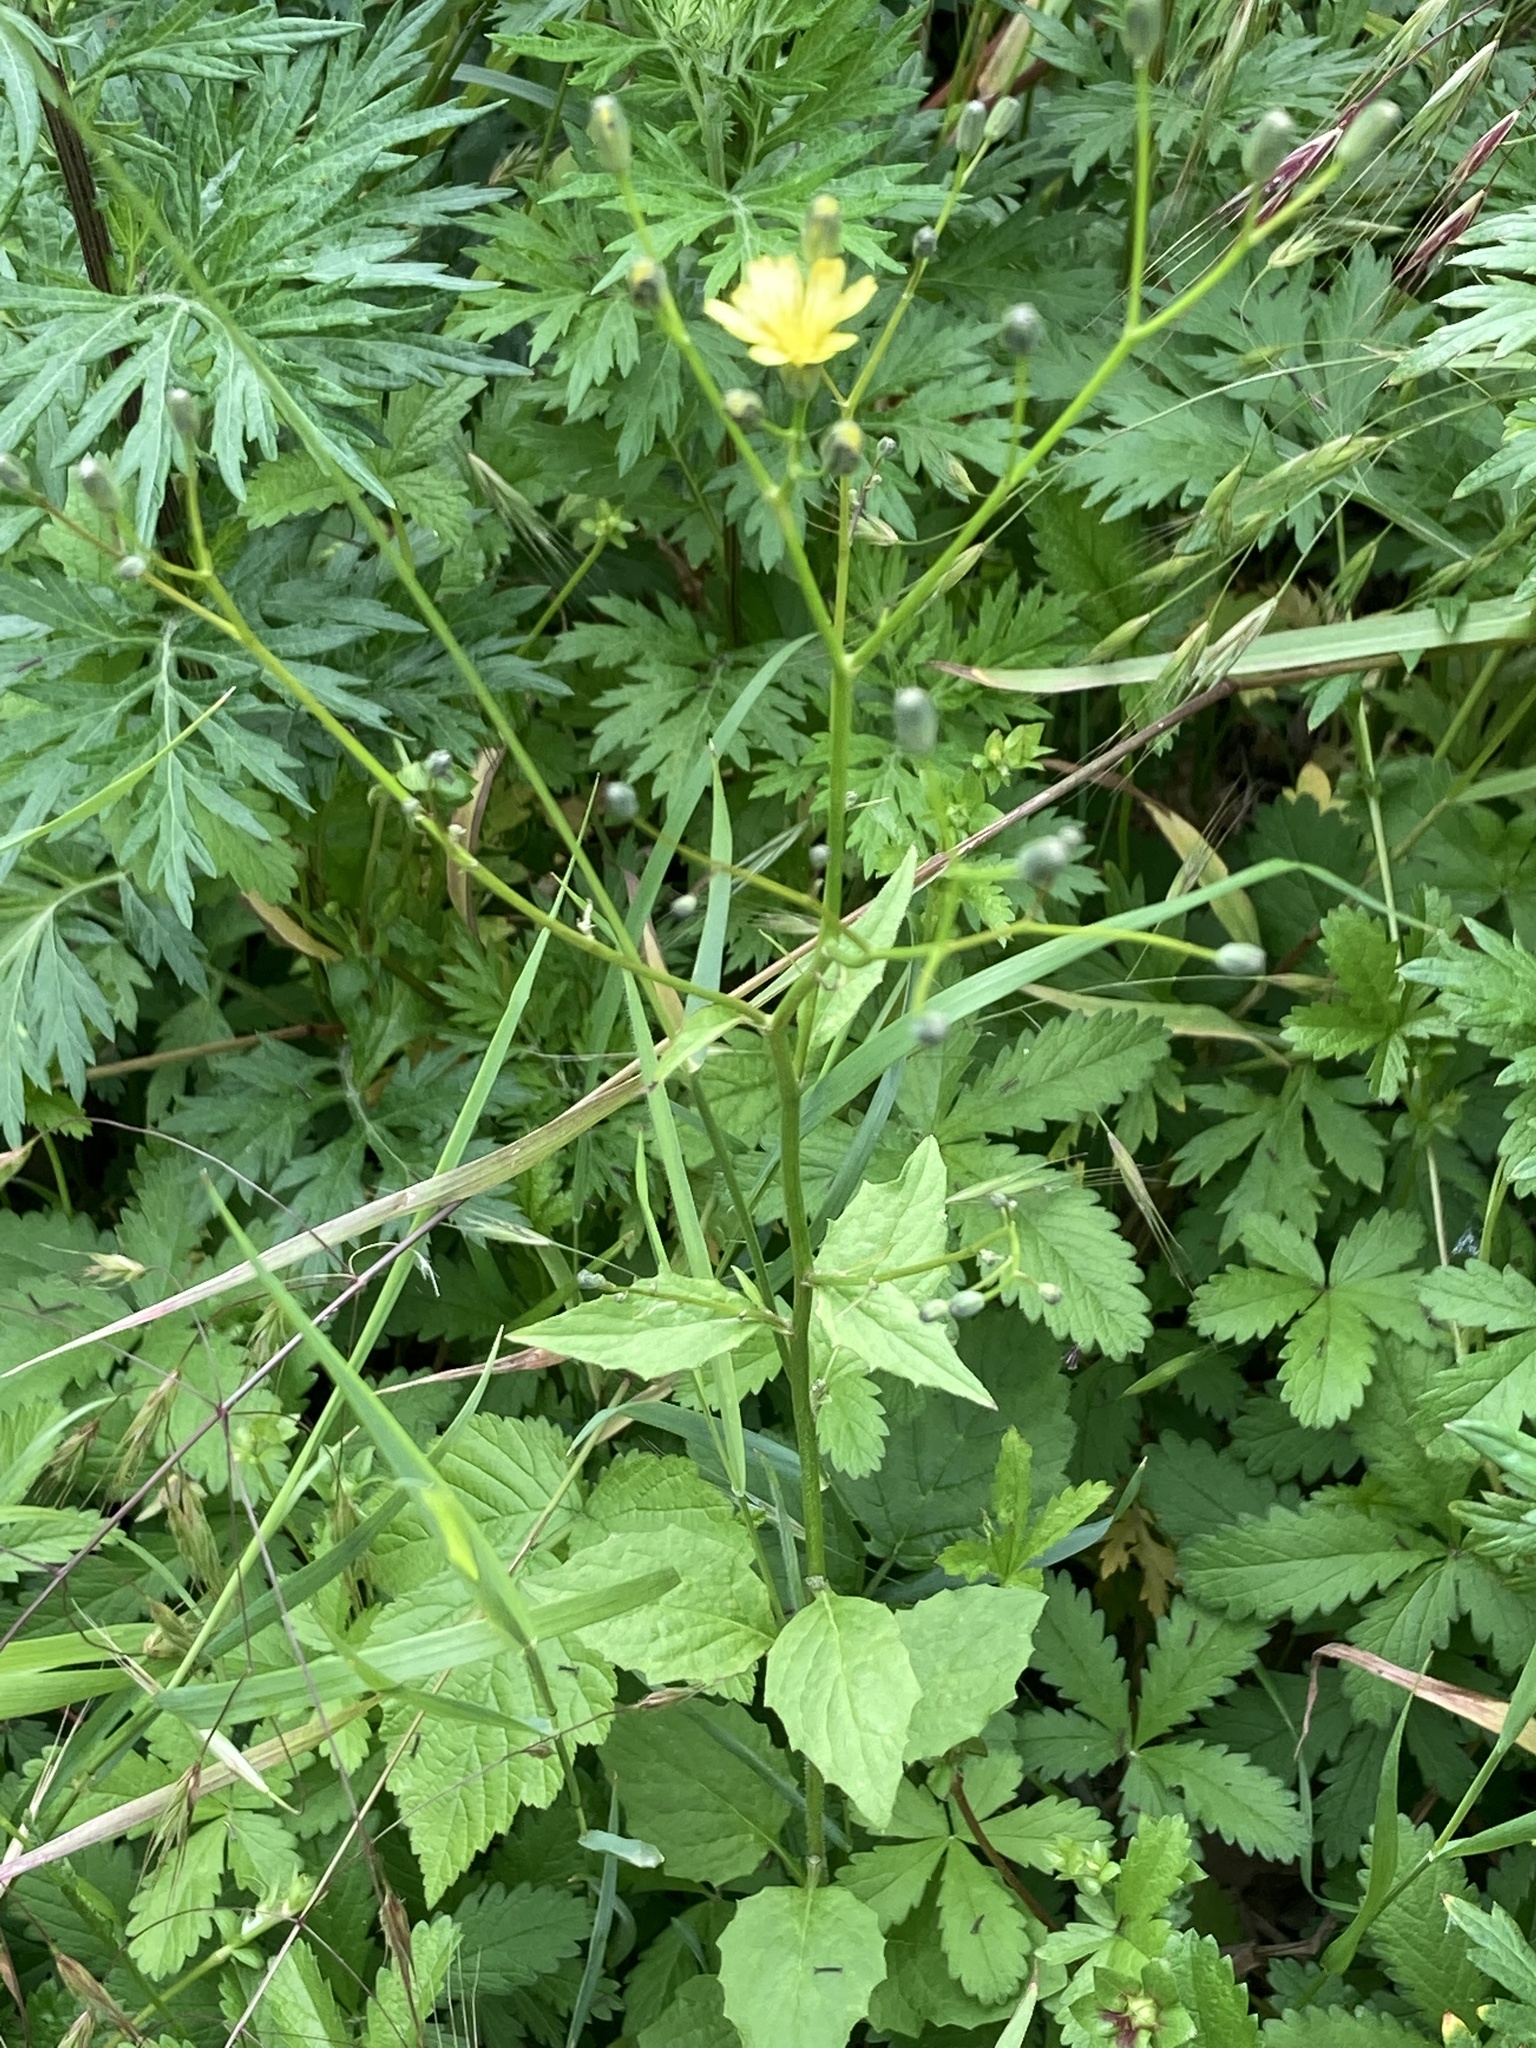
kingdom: Plantae
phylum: Tracheophyta
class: Magnoliopsida
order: Asterales
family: Asteraceae
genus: Lapsana
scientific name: Lapsana communis
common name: Nipplewort
